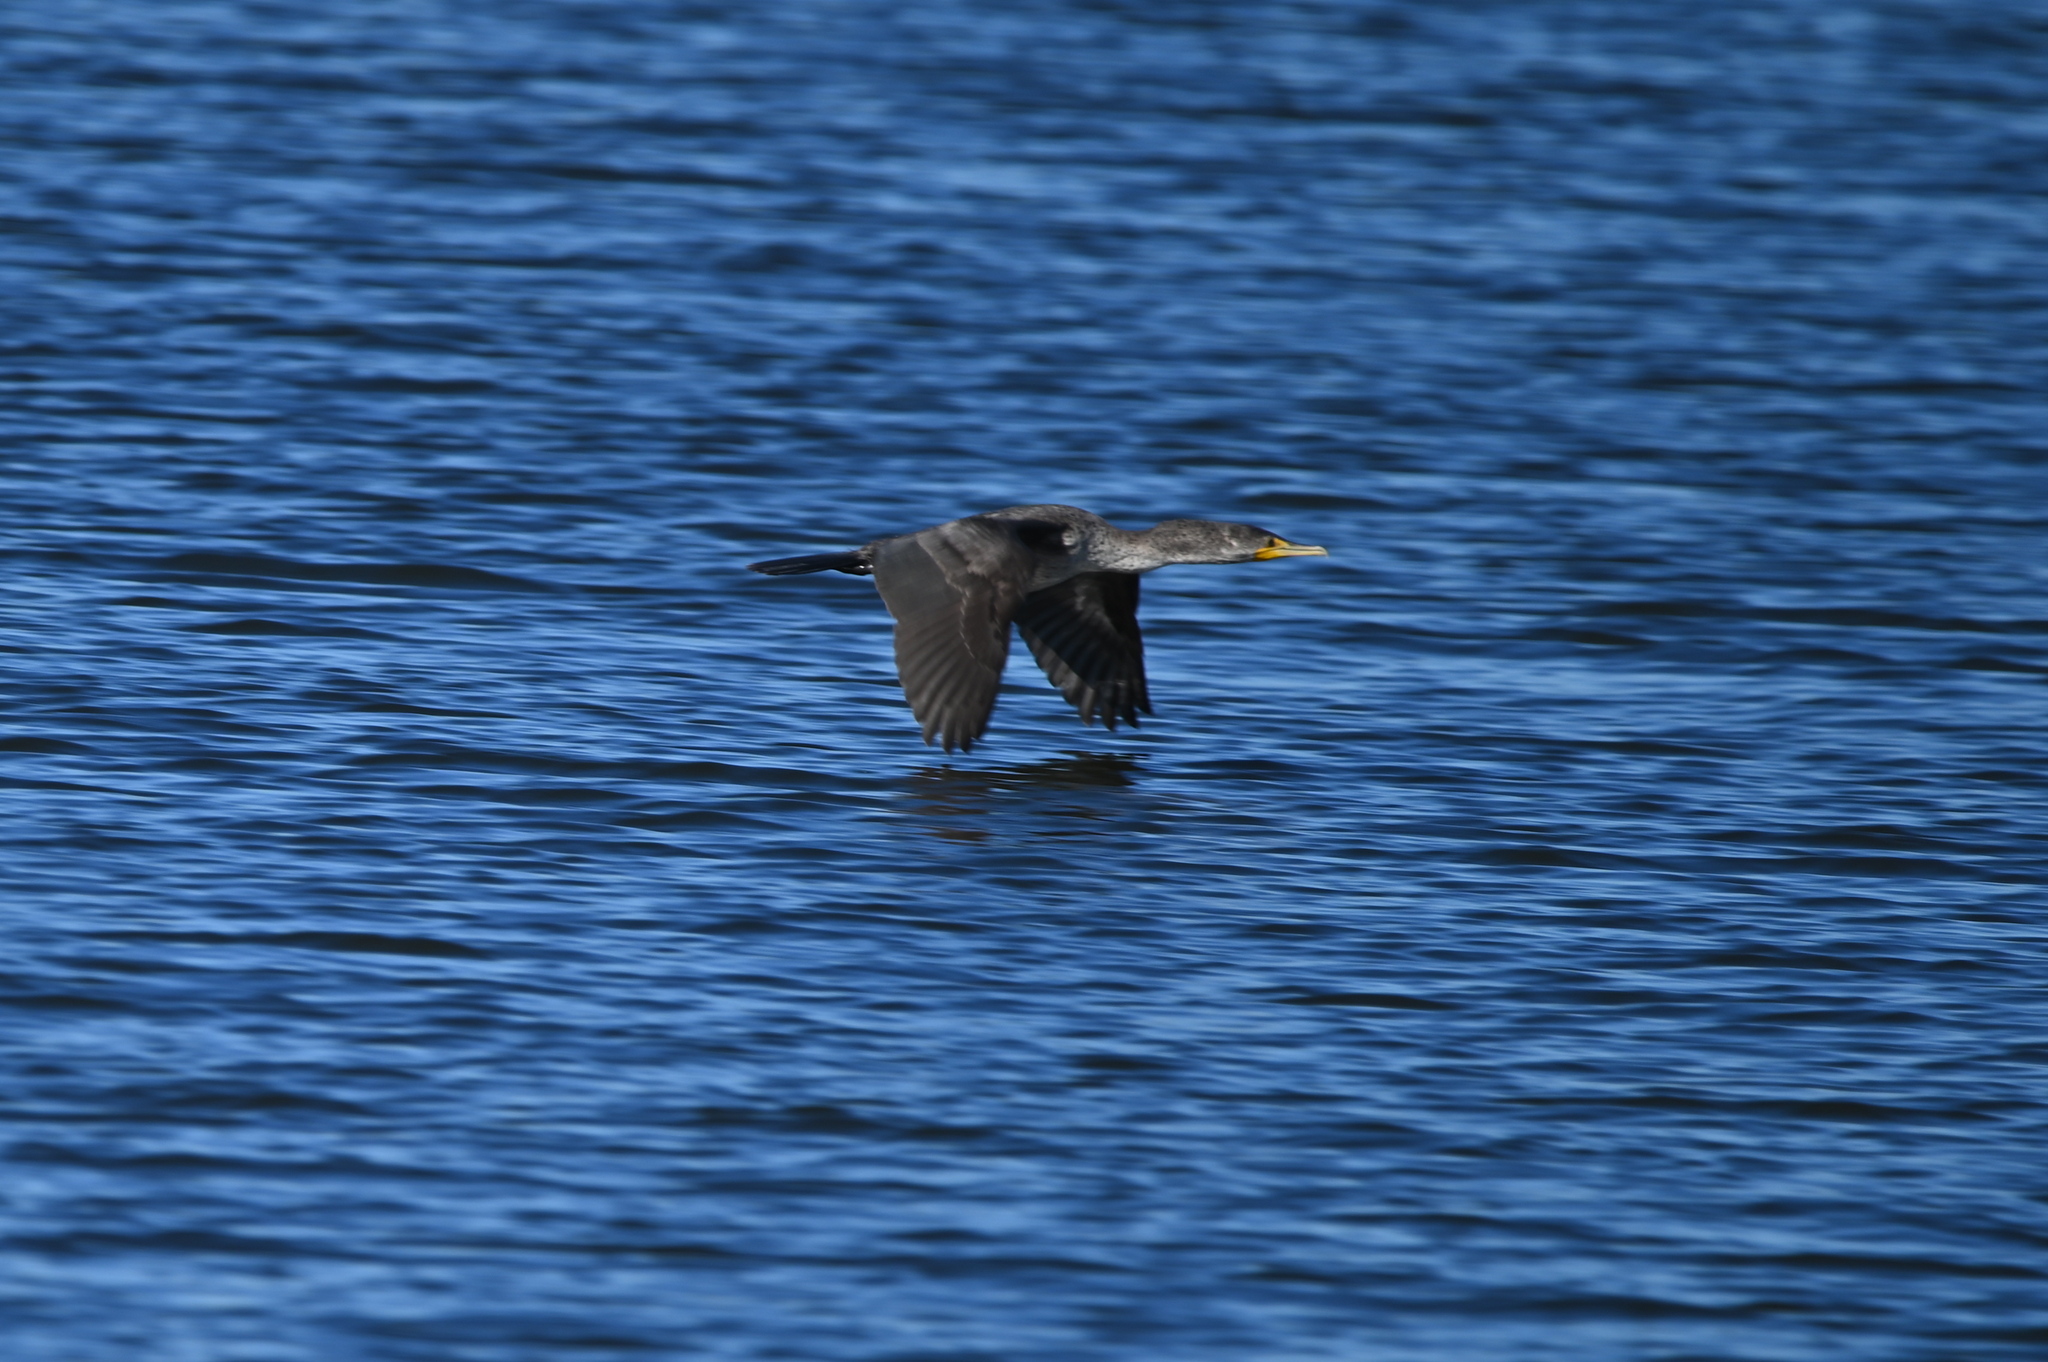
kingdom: Animalia
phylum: Chordata
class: Aves
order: Suliformes
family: Phalacrocoracidae
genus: Phalacrocorax
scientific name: Phalacrocorax auritus
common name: Double-crested cormorant
